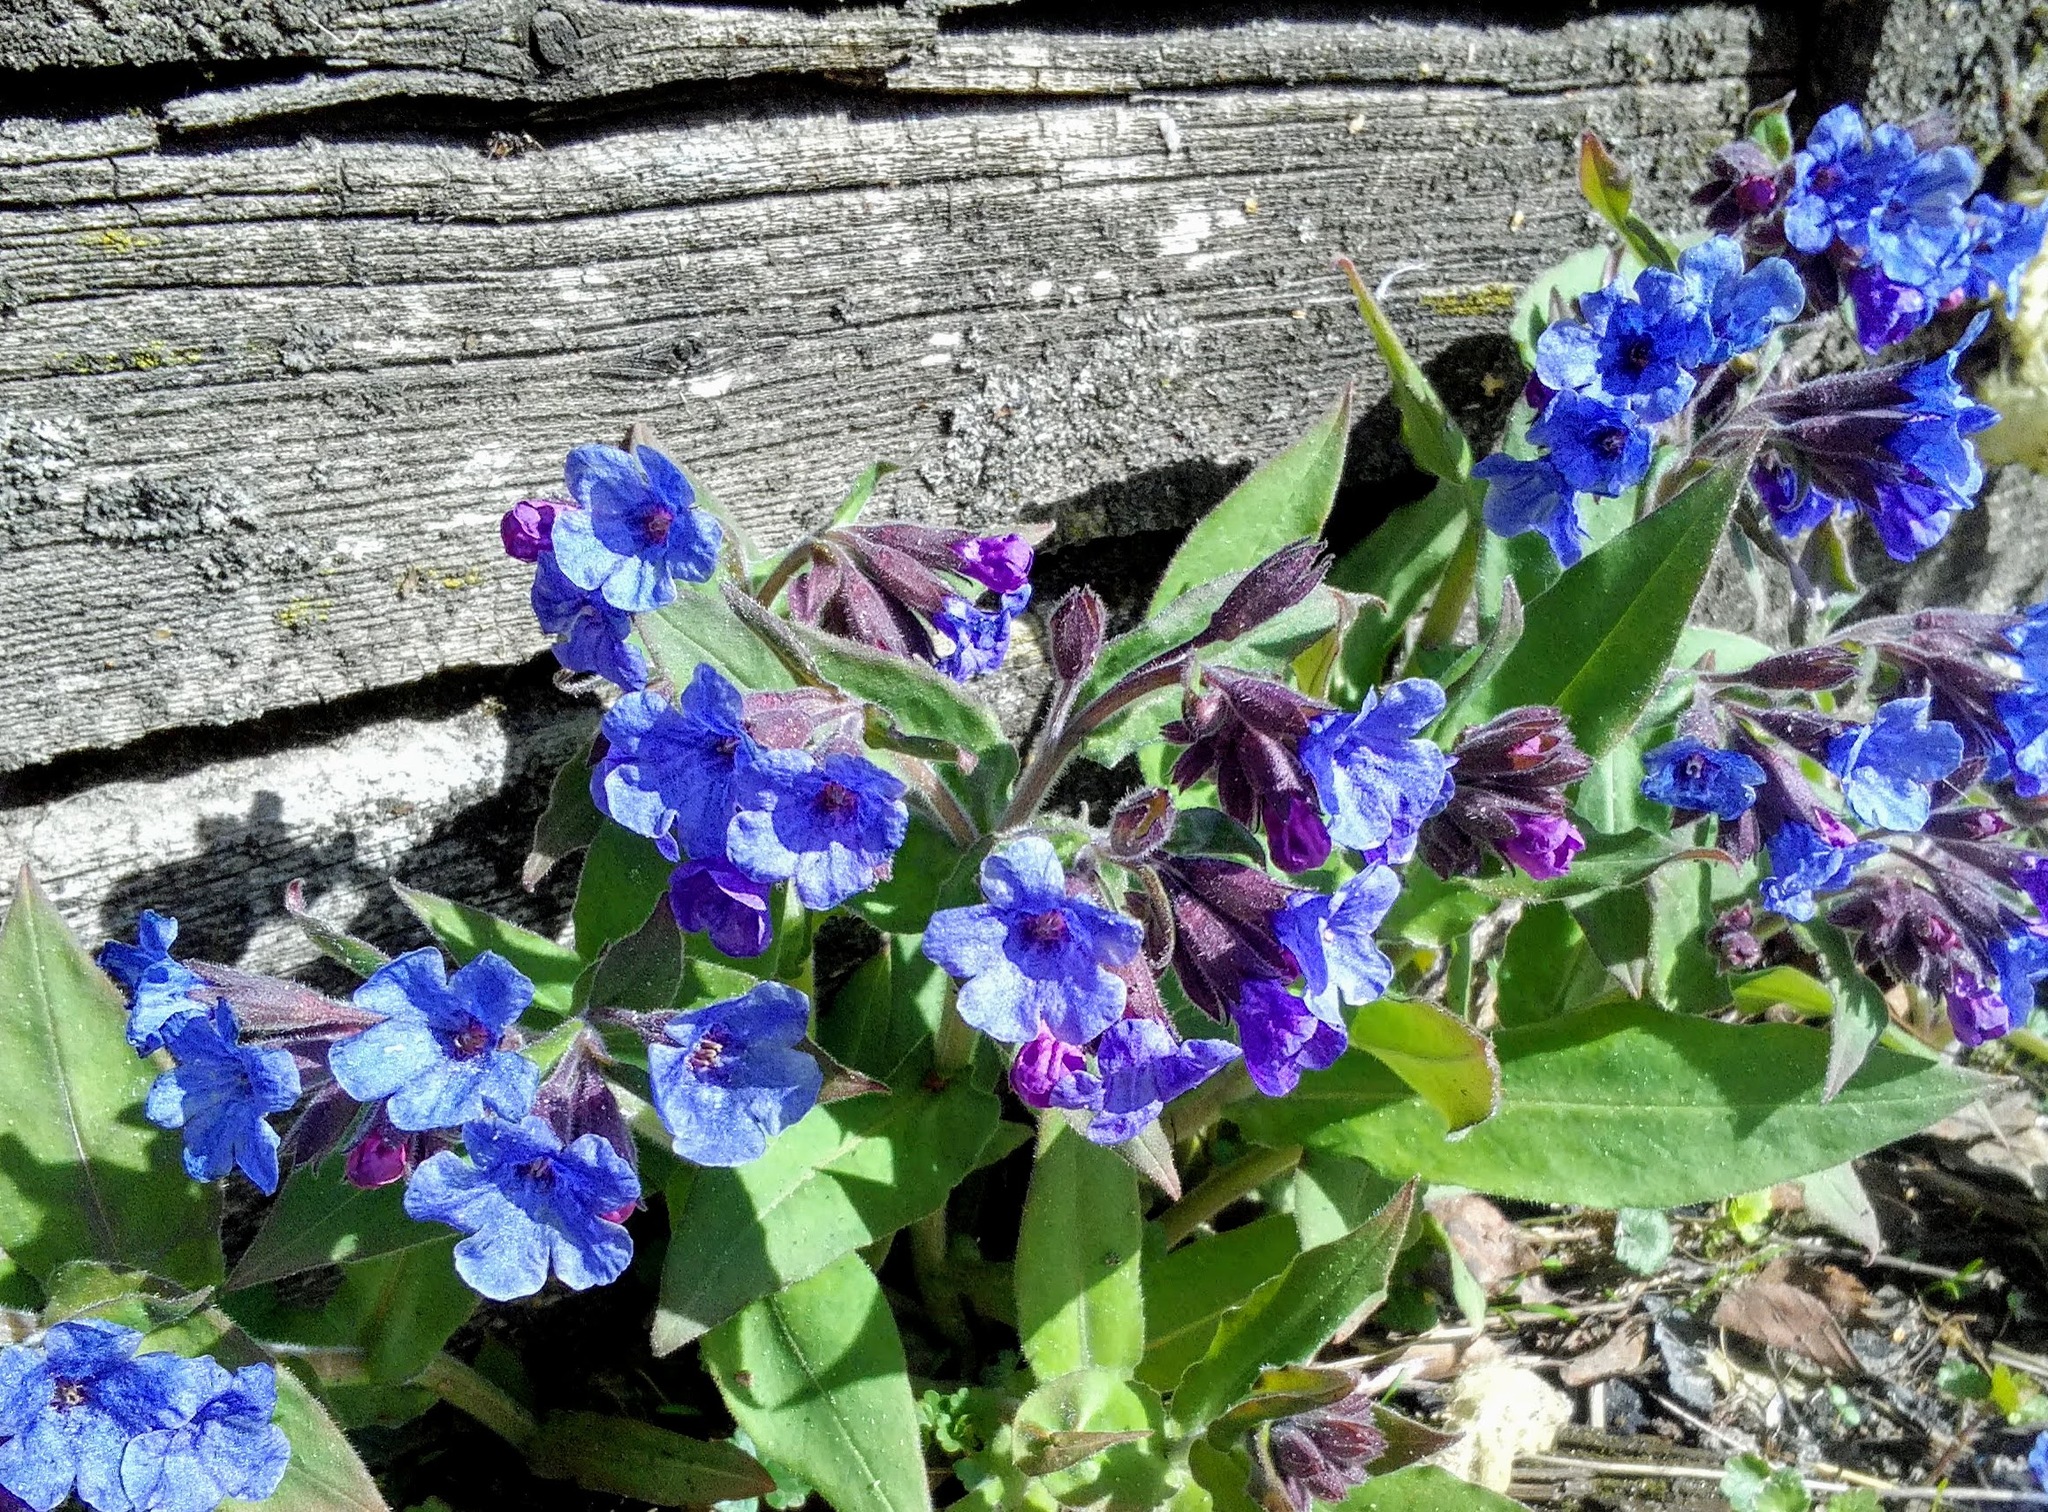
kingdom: Plantae
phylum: Tracheophyta
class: Magnoliopsida
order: Boraginales
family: Boraginaceae
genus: Pulmonaria
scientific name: Pulmonaria mollis
